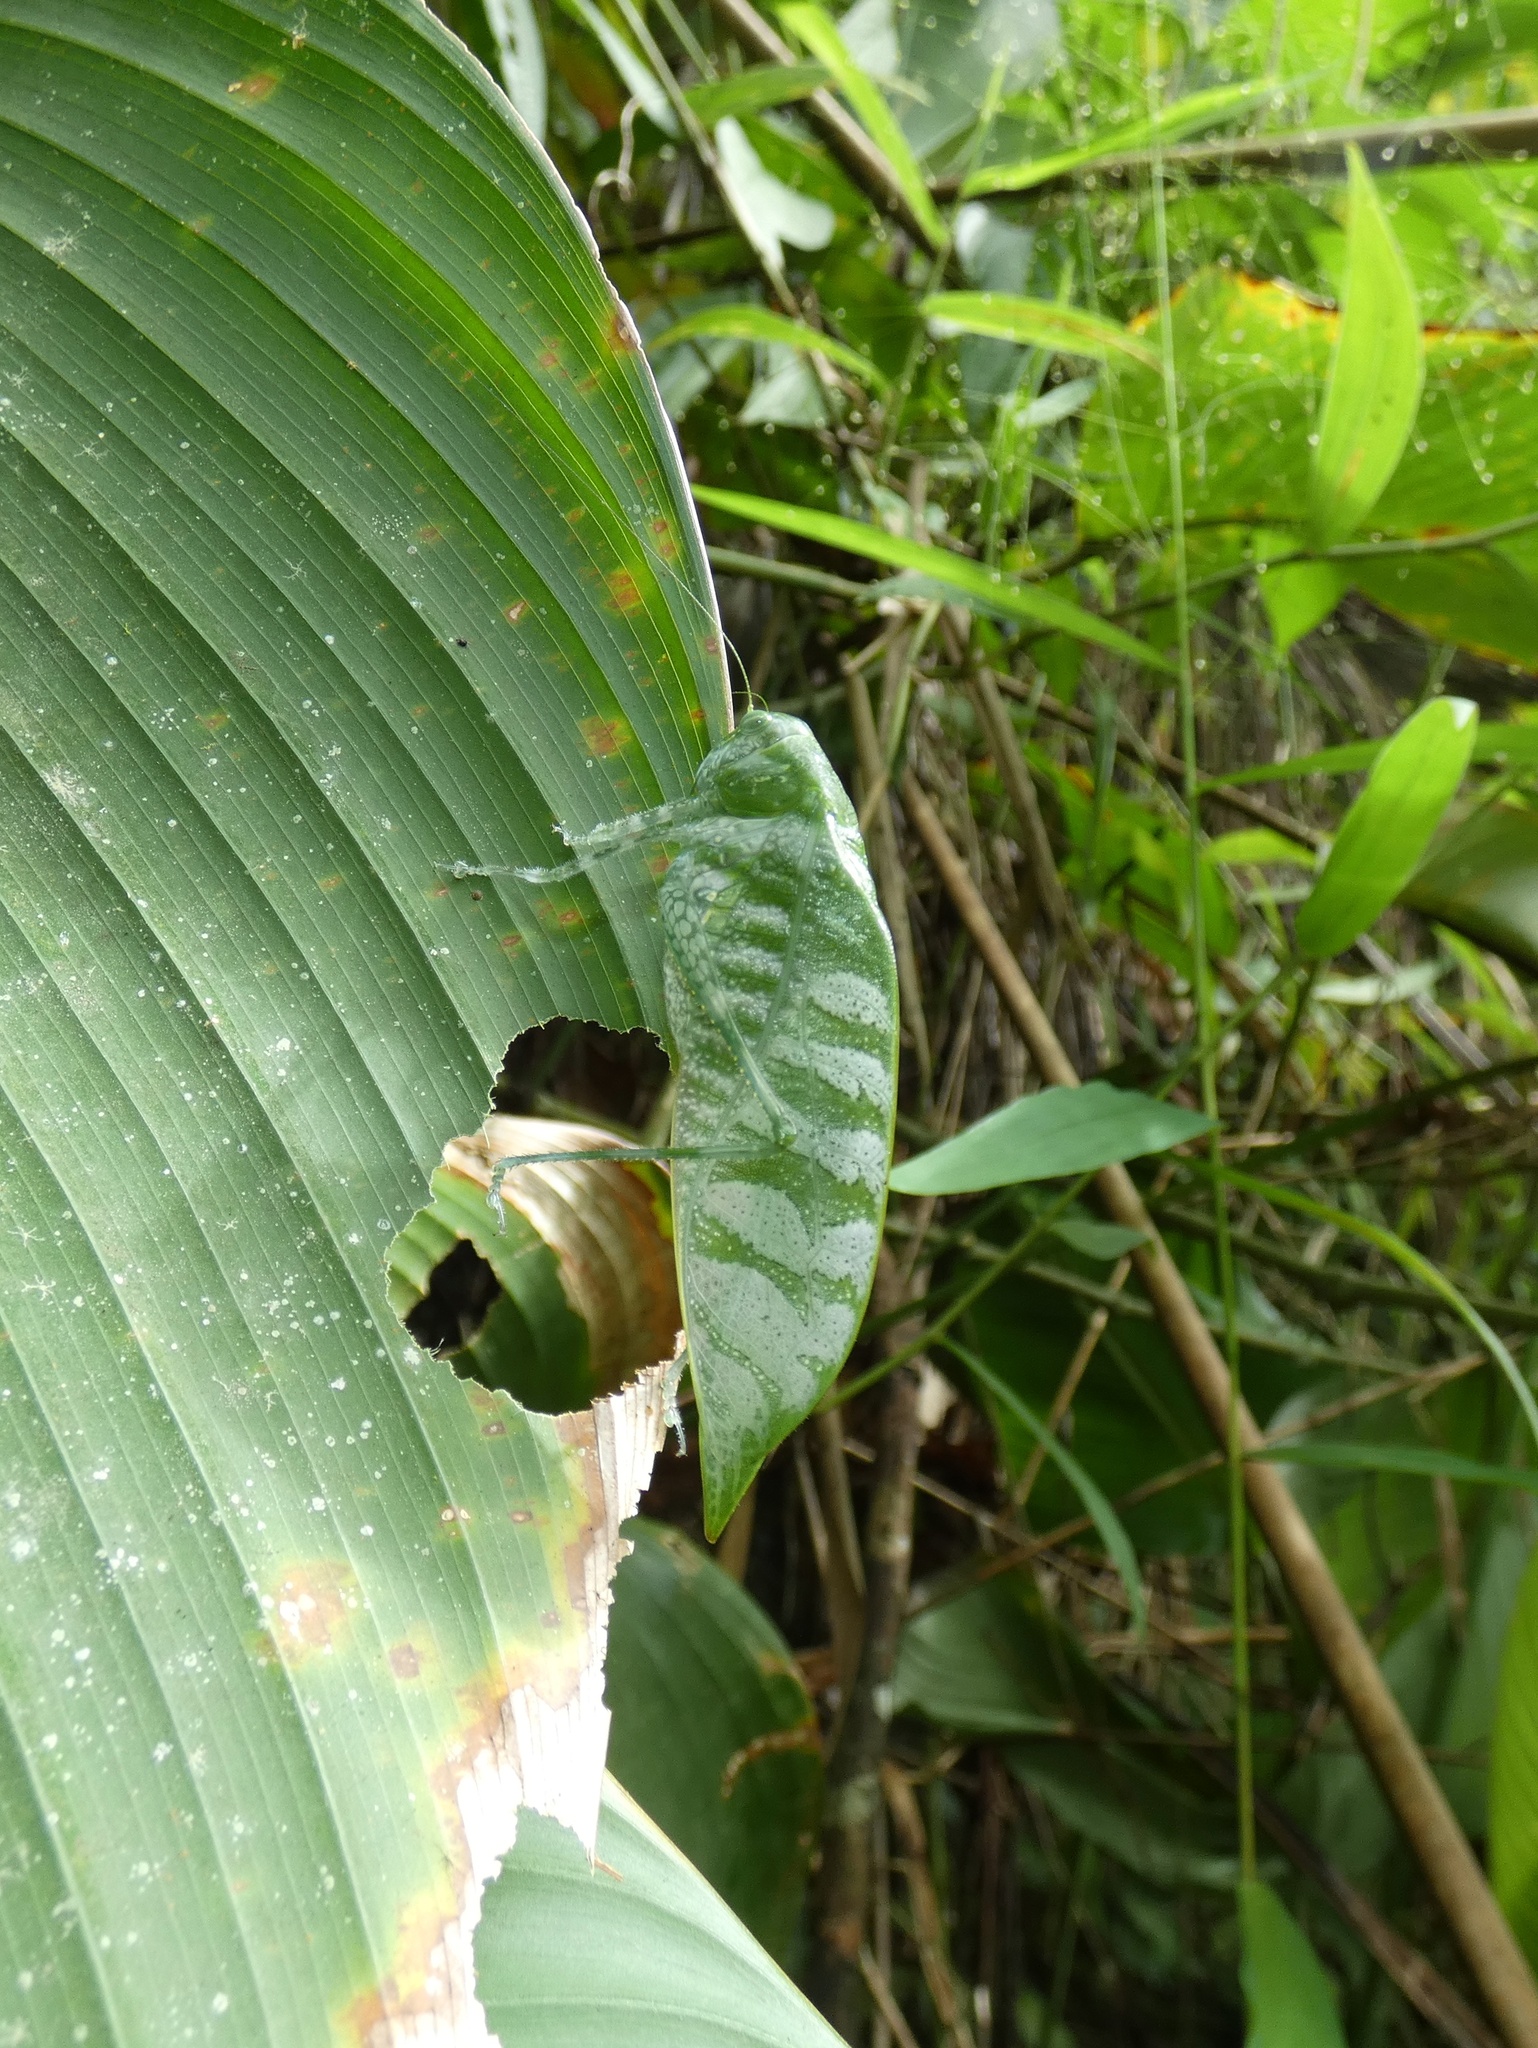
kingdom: Animalia
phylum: Arthropoda
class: Insecta
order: Orthoptera
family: Tettigoniidae
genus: Anapolisia
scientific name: Anapolisia colossea
